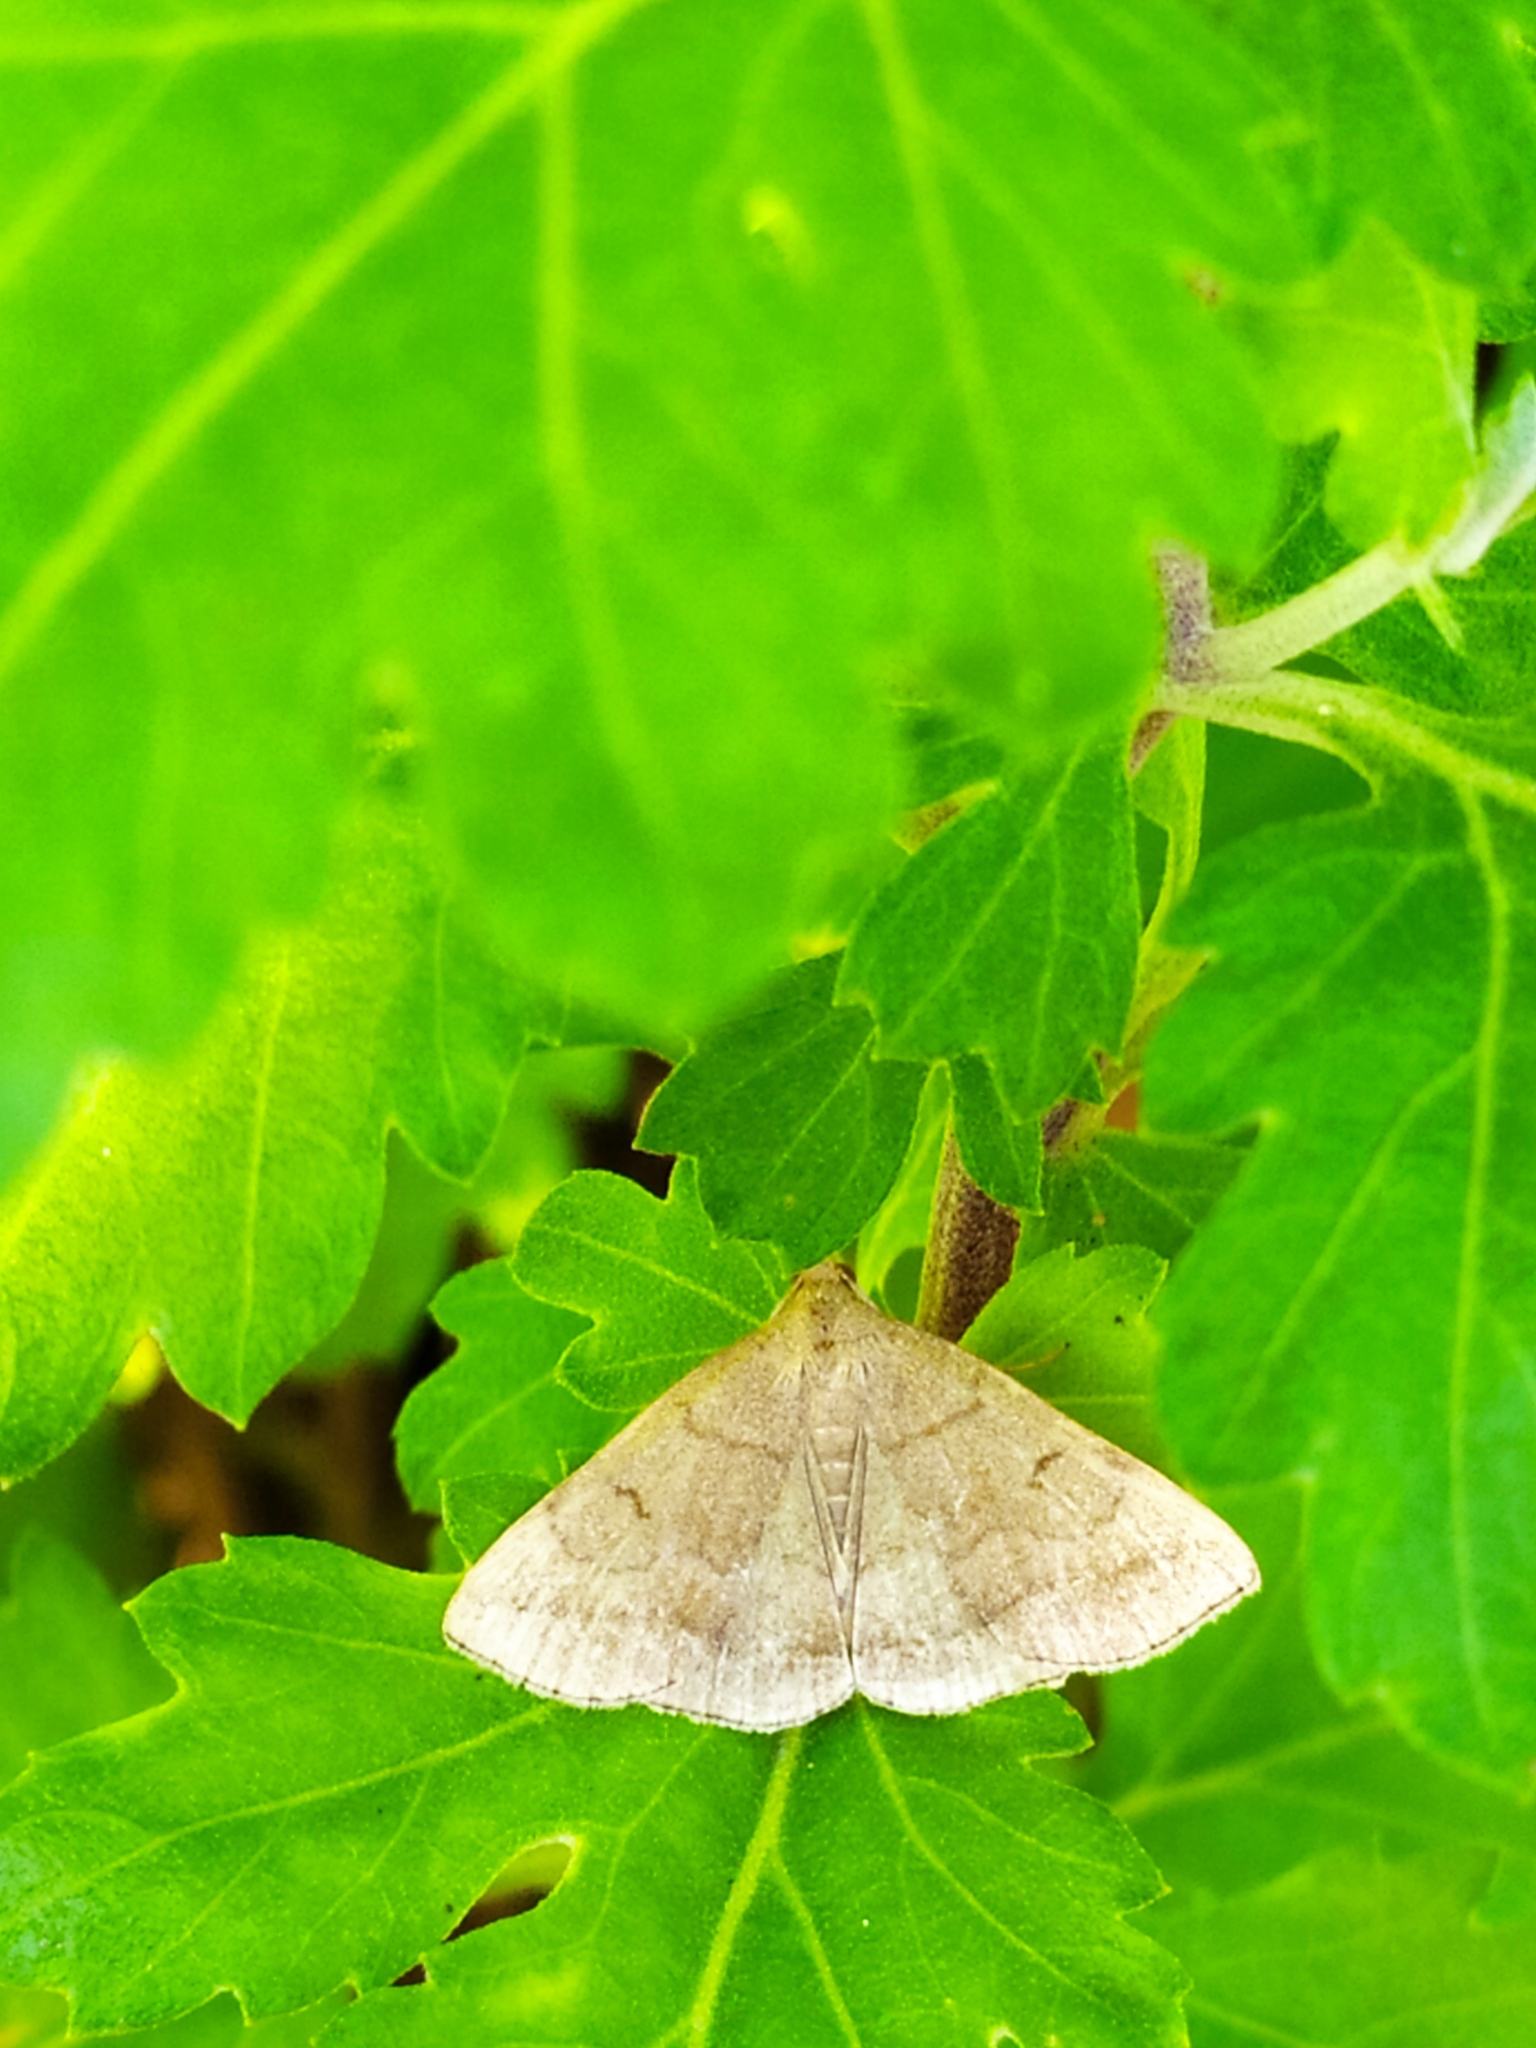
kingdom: Animalia
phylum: Arthropoda
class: Insecta
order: Lepidoptera
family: Erebidae
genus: Zanclognatha
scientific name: Zanclognatha lunalis
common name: Jubilee fan-foot
